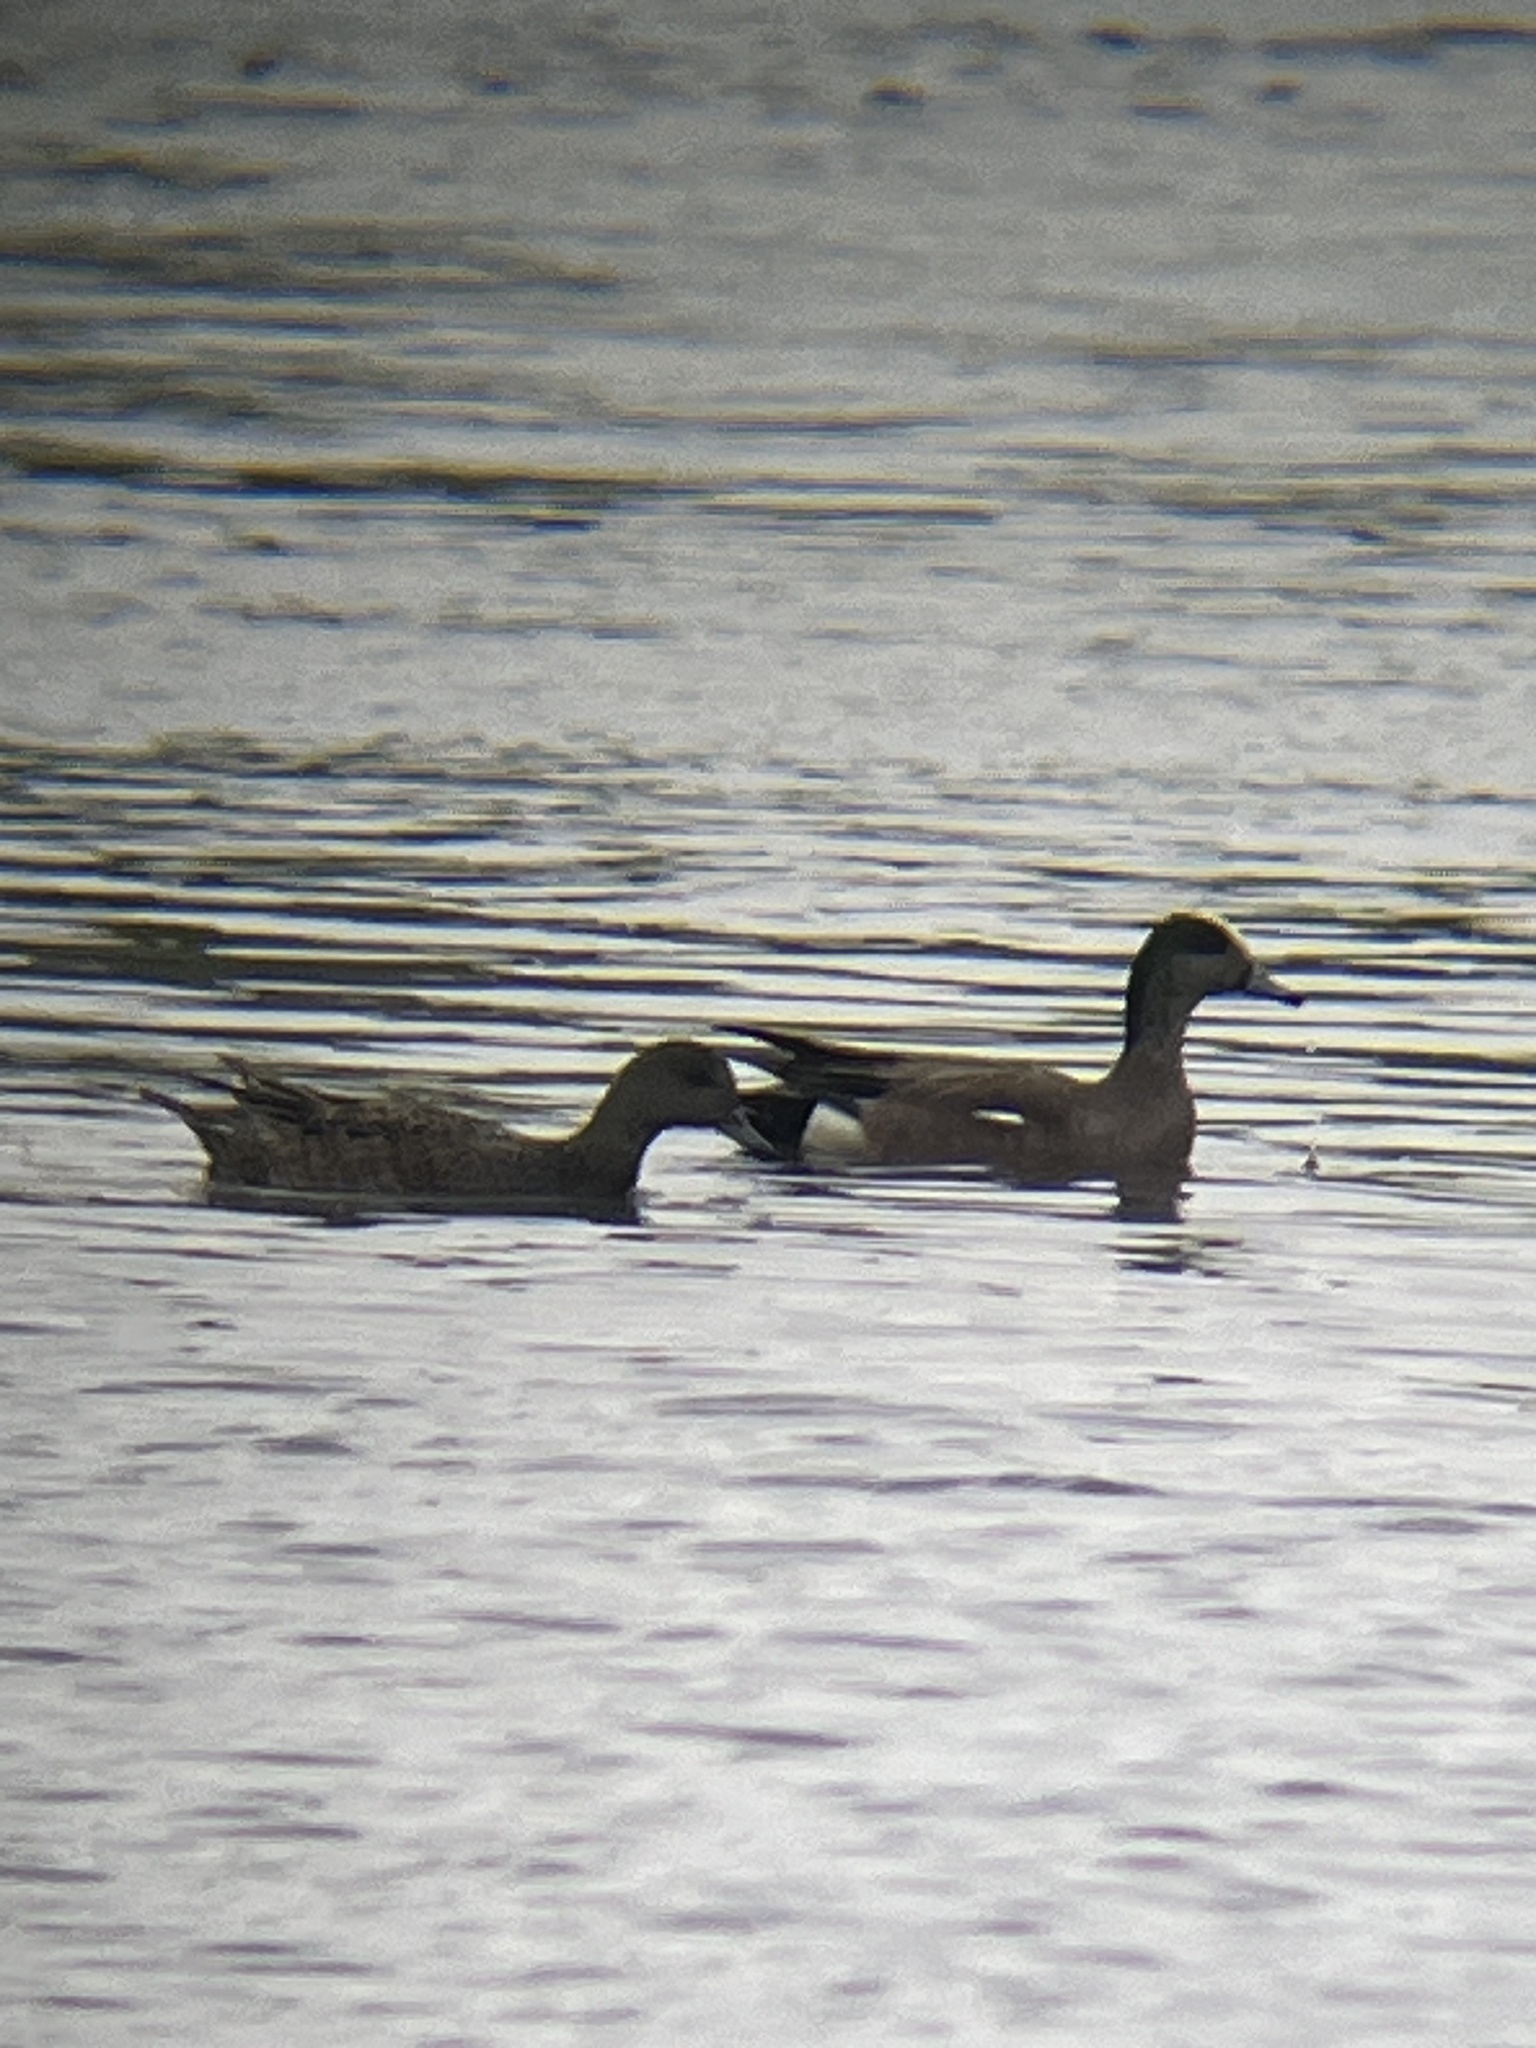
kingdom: Animalia
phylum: Chordata
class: Aves
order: Anseriformes
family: Anatidae
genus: Mareca
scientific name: Mareca americana
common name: American wigeon
